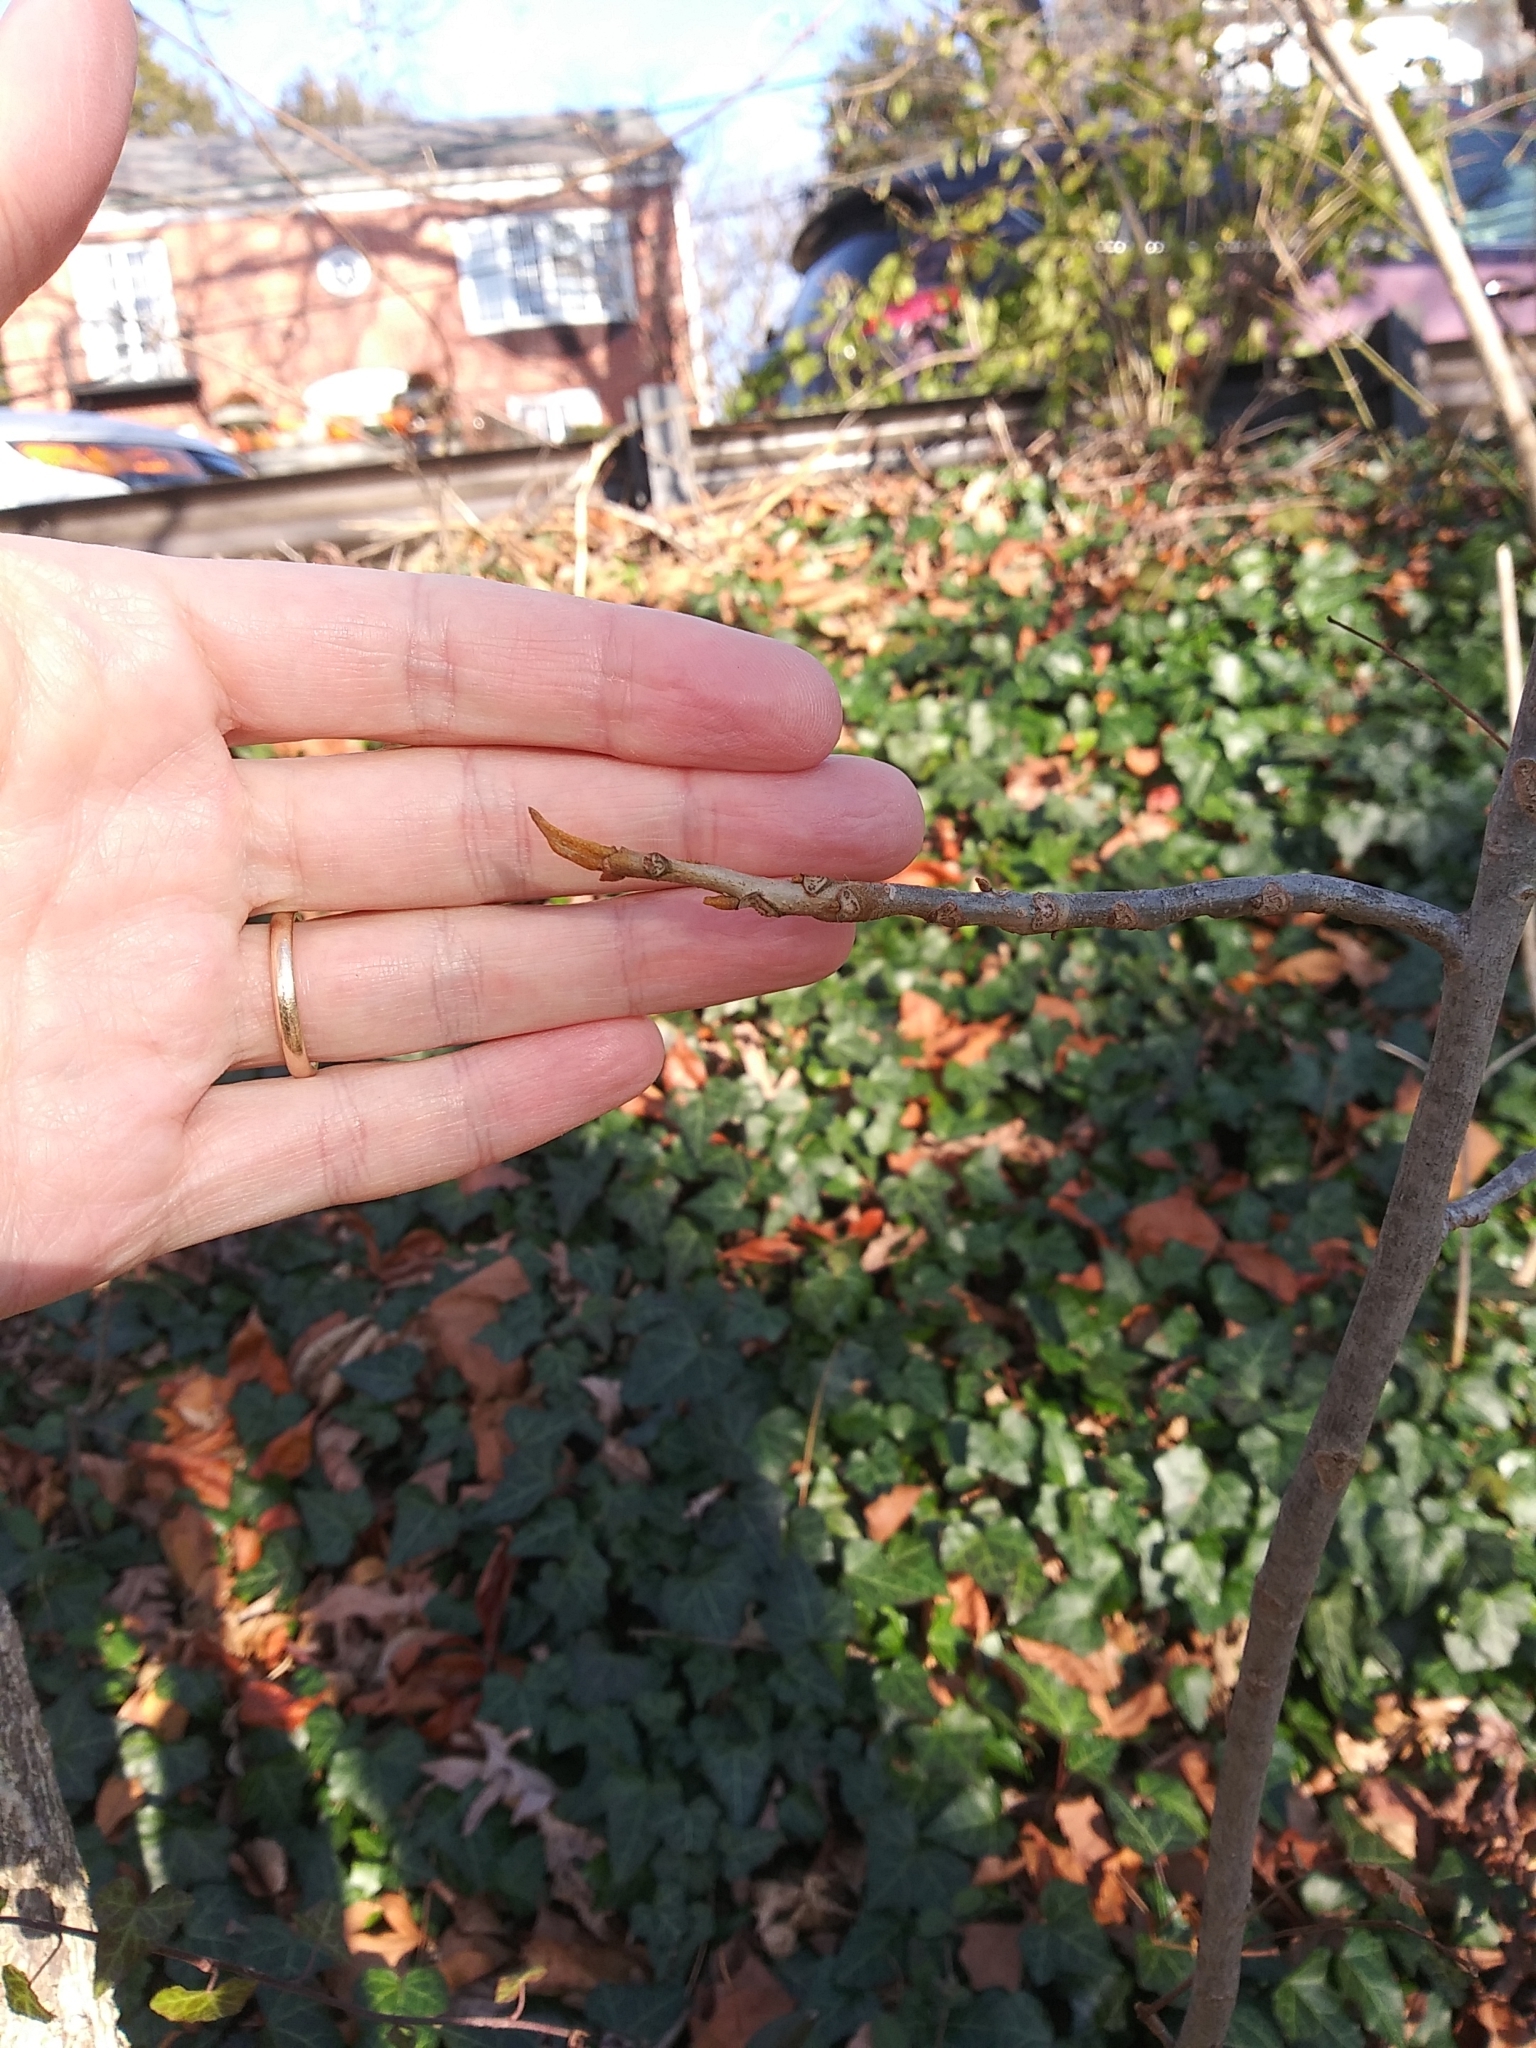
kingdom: Plantae
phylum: Tracheophyta
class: Magnoliopsida
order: Fagales
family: Juglandaceae
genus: Carya
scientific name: Carya cordiformis
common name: Bitternut hickory
